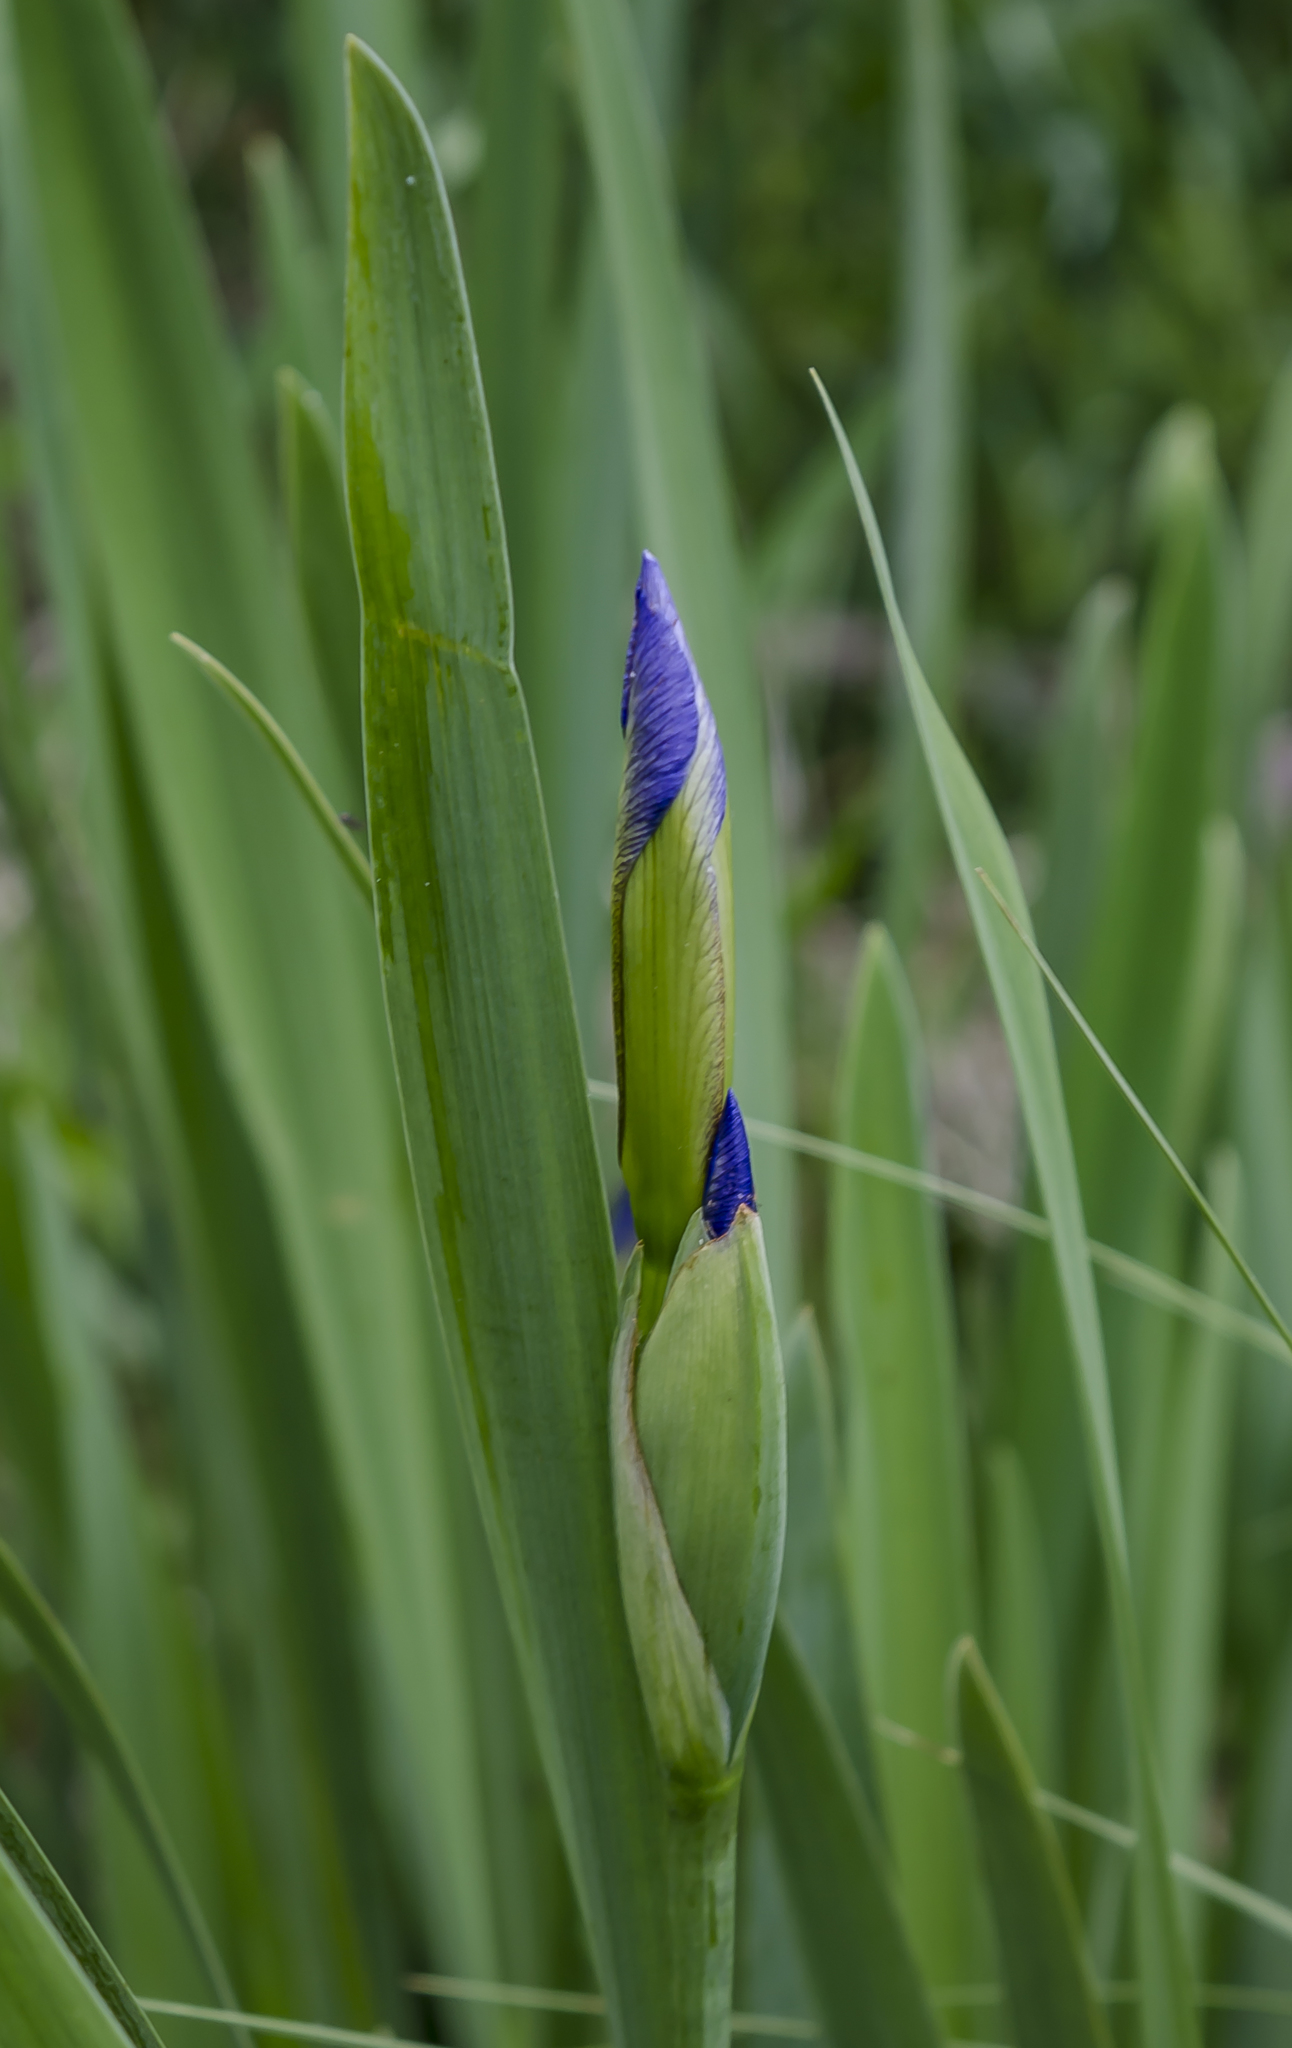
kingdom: Plantae
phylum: Tracheophyta
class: Liliopsida
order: Asparagales
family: Iridaceae
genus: Iris
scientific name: Iris virginica
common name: Southern blue flag
